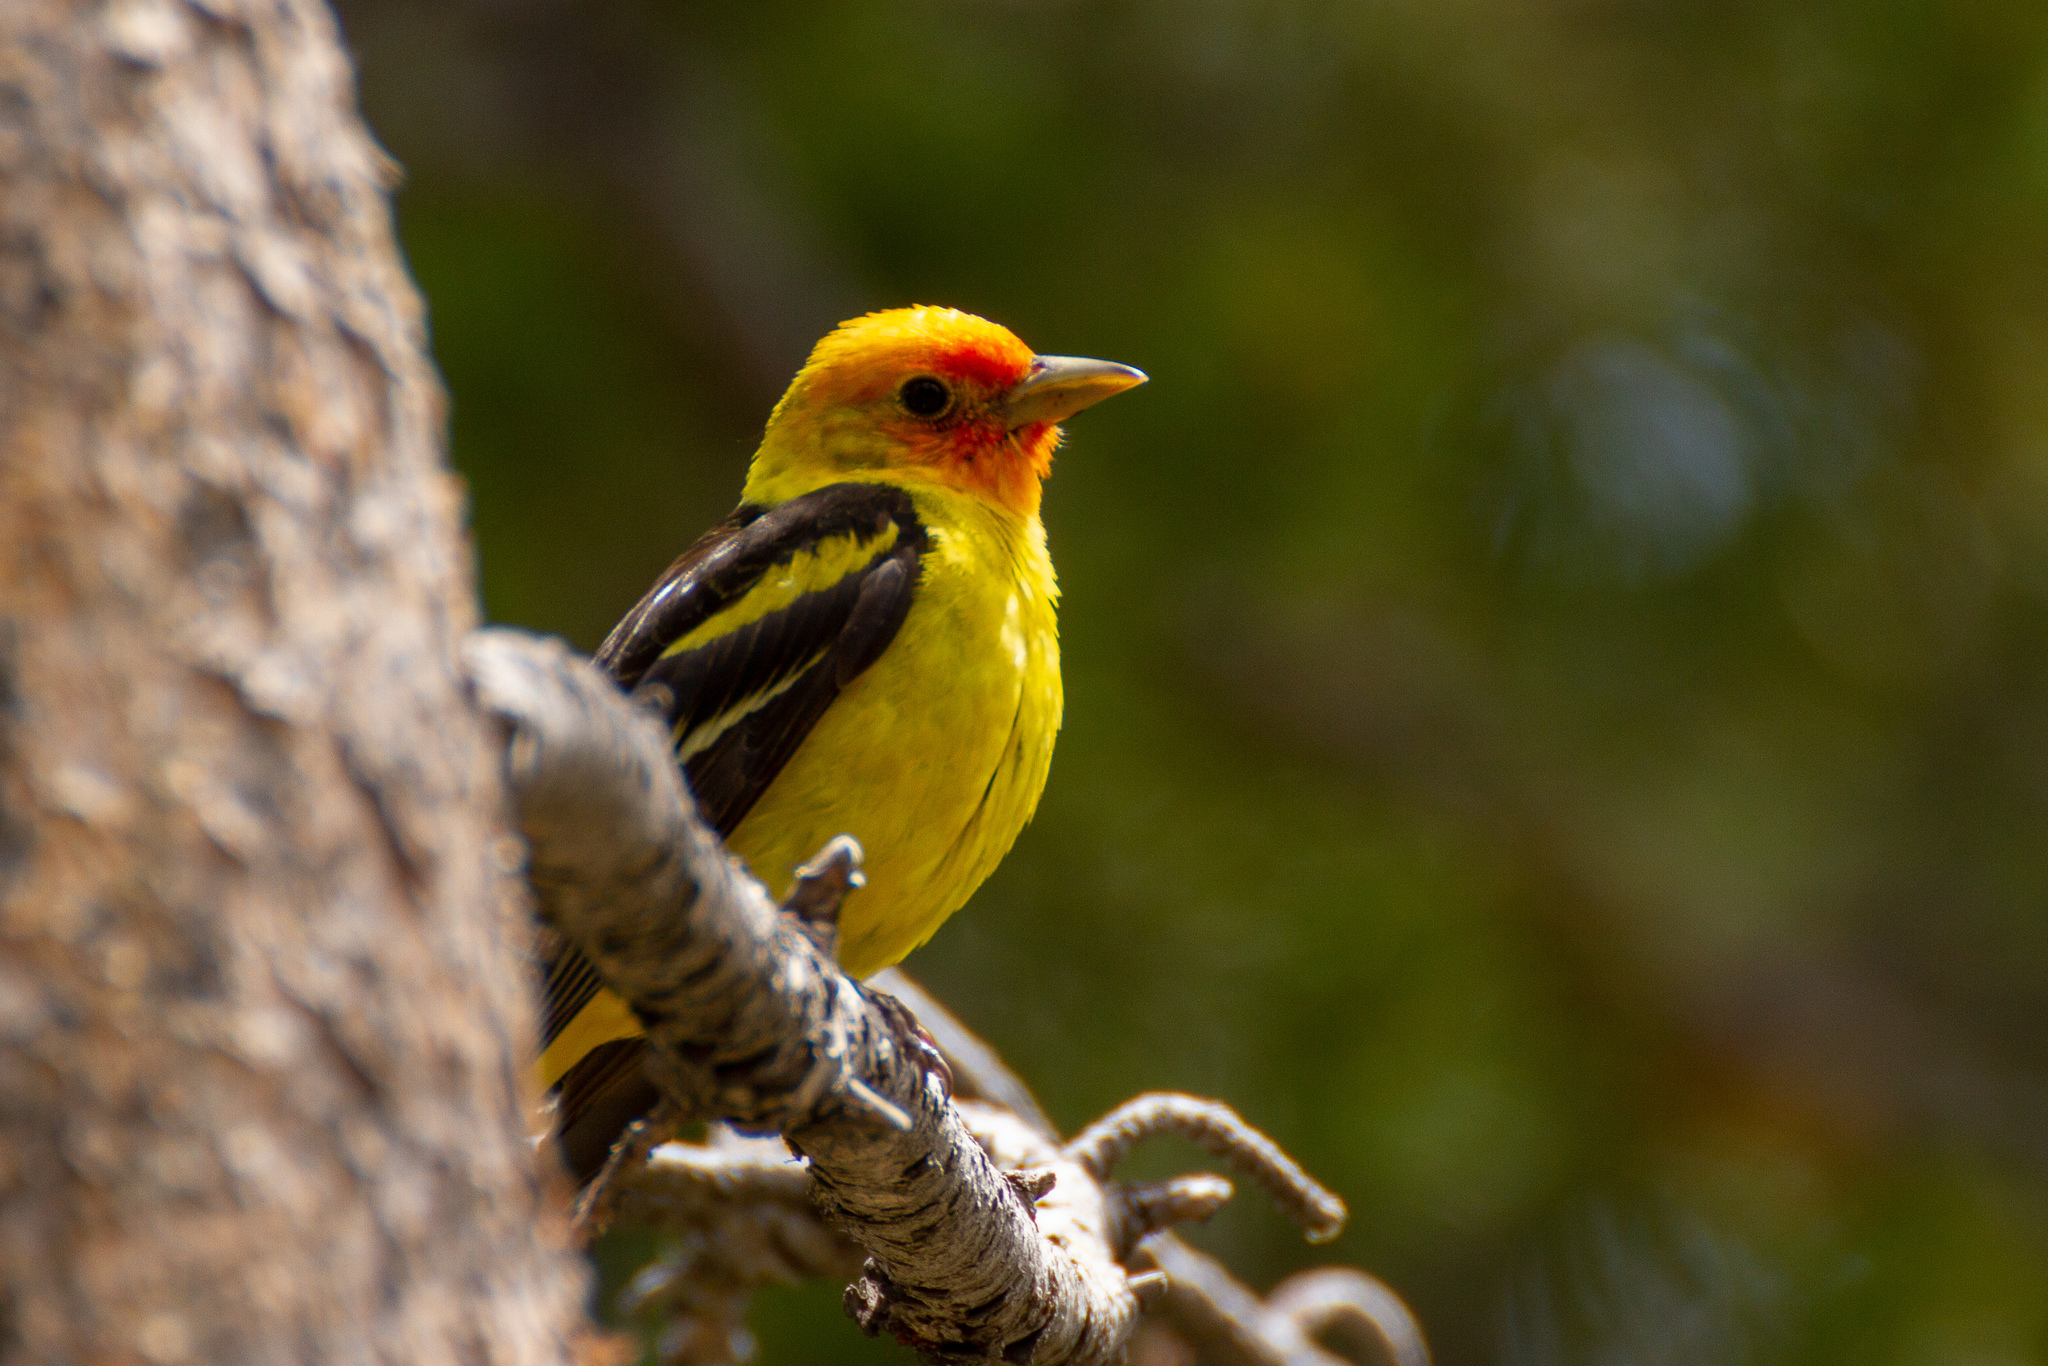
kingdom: Animalia
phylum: Chordata
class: Aves
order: Passeriformes
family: Cardinalidae
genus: Piranga
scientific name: Piranga ludoviciana
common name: Western tanager
